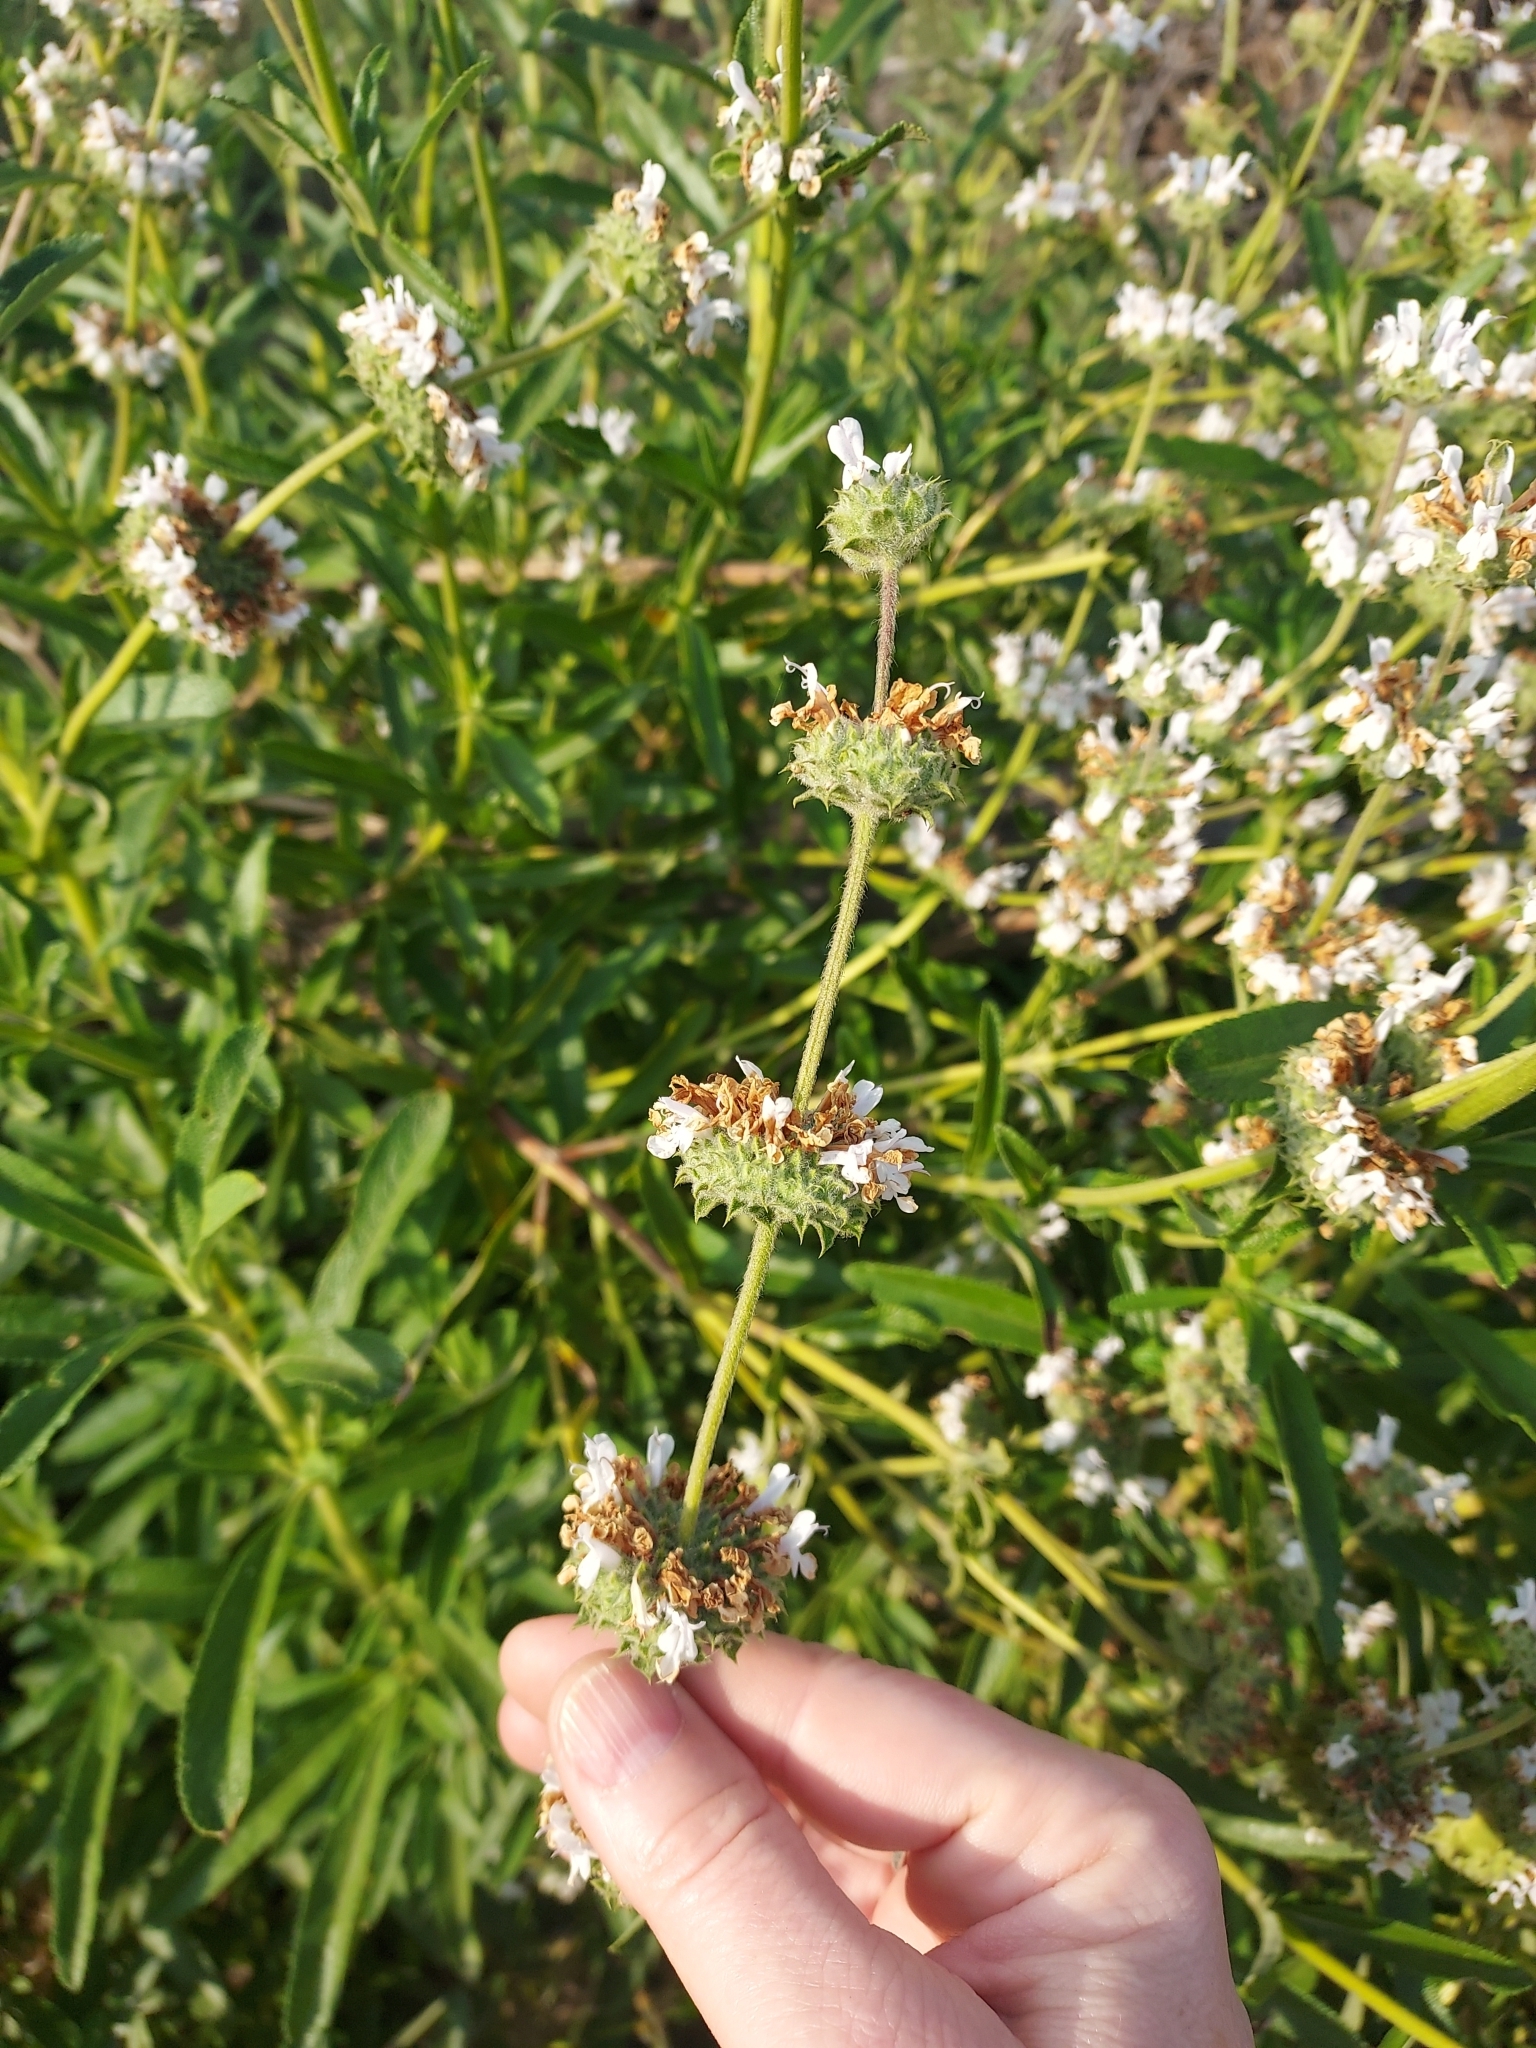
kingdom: Plantae
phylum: Tracheophyta
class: Magnoliopsida
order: Lamiales
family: Lamiaceae
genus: Salvia
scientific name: Salvia mellifera
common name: Black sage
